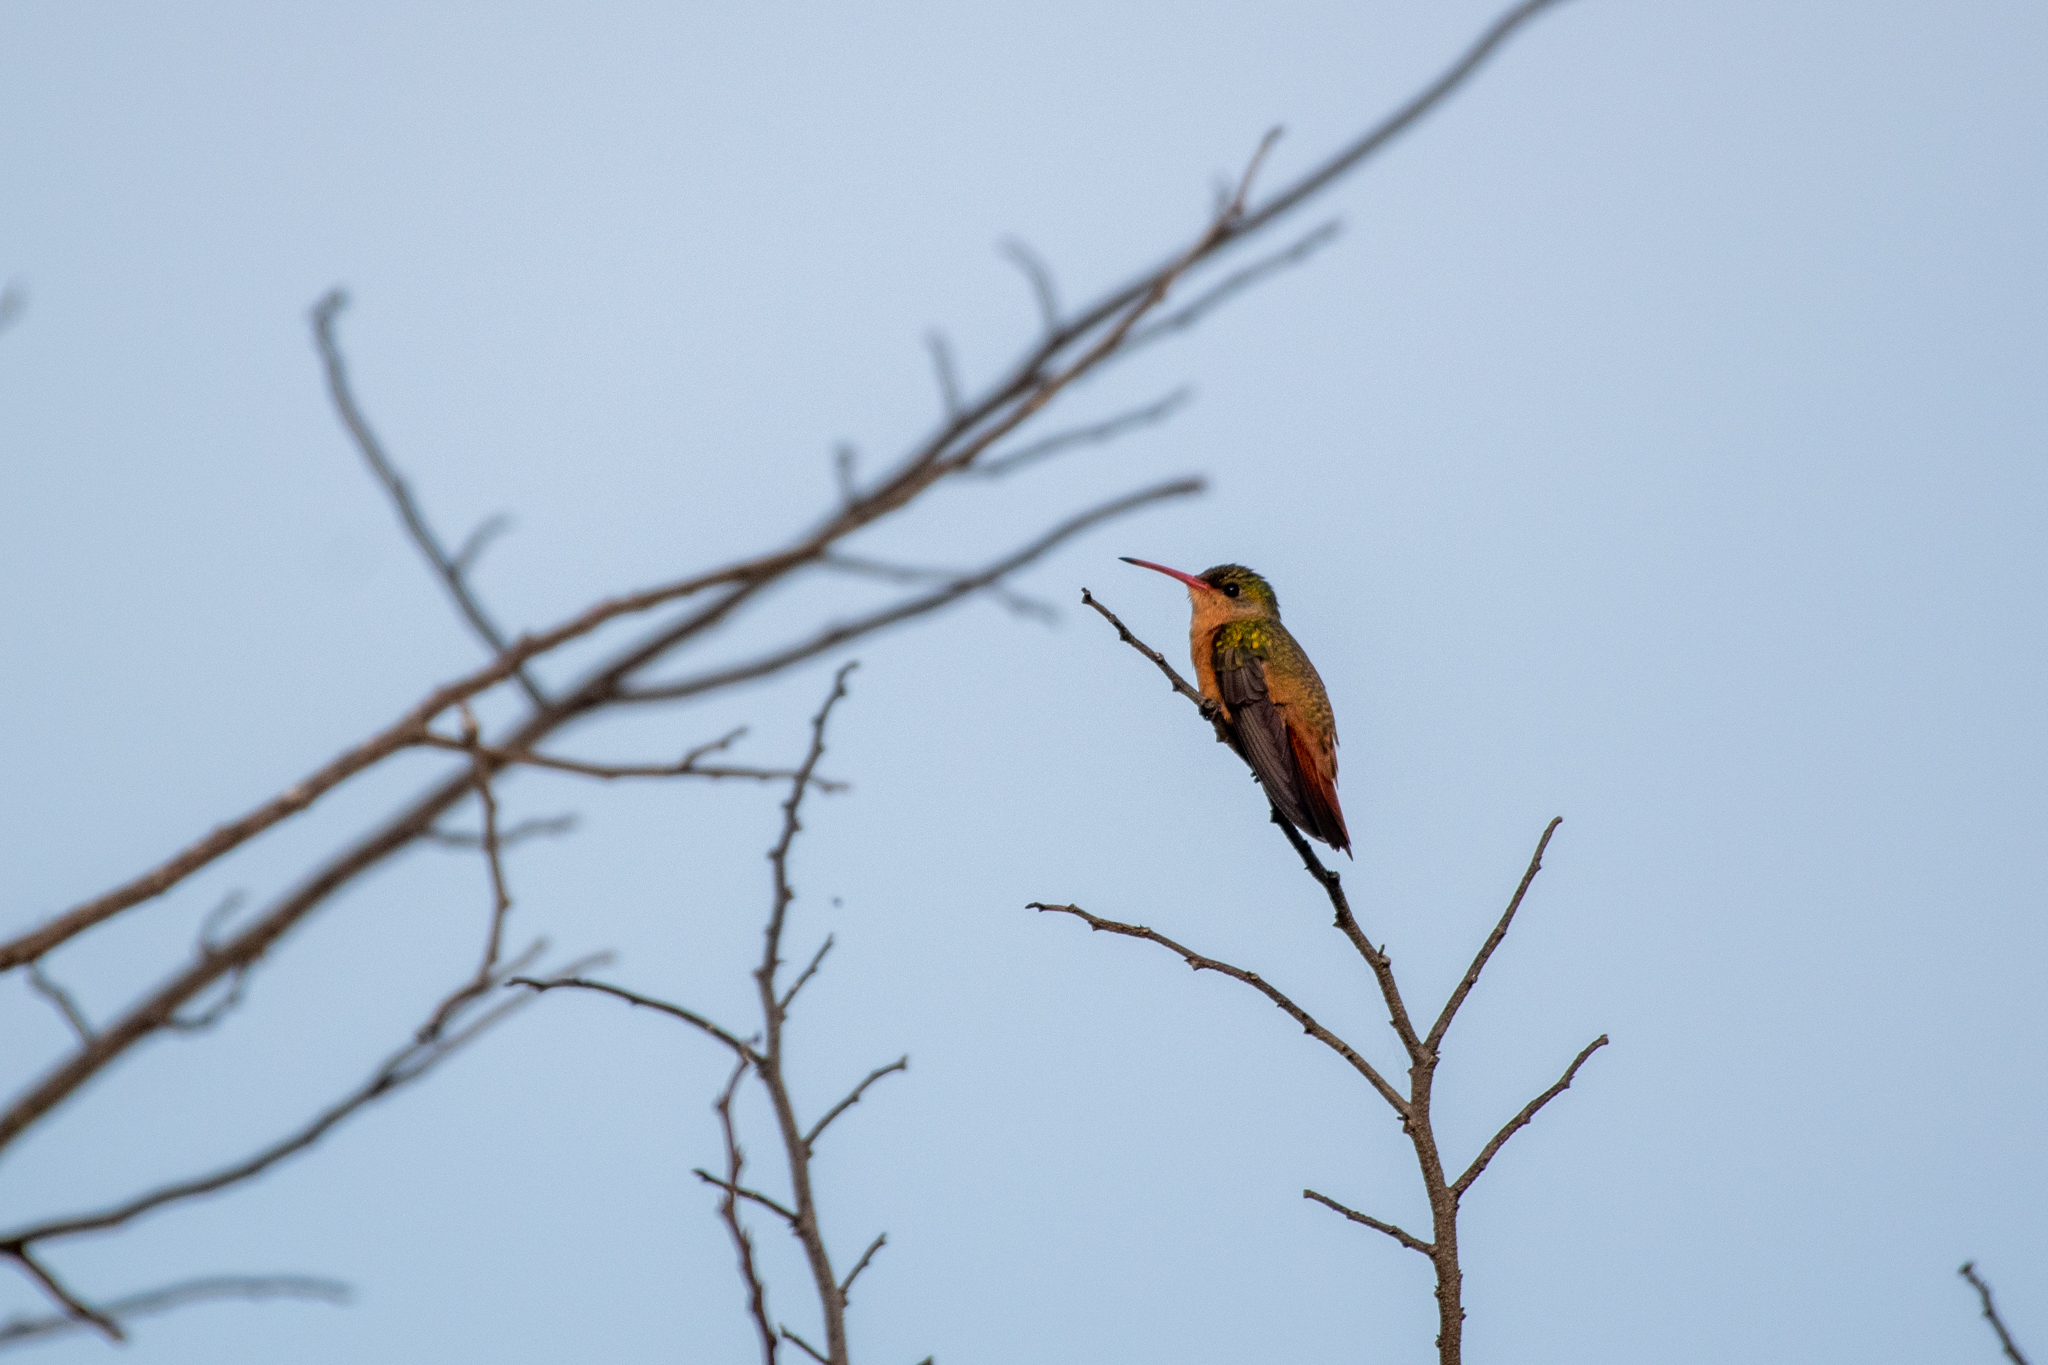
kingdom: Animalia
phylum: Chordata
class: Aves
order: Apodiformes
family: Trochilidae
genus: Amazilia
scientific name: Amazilia rutila
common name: Cinnamon hummingbird
